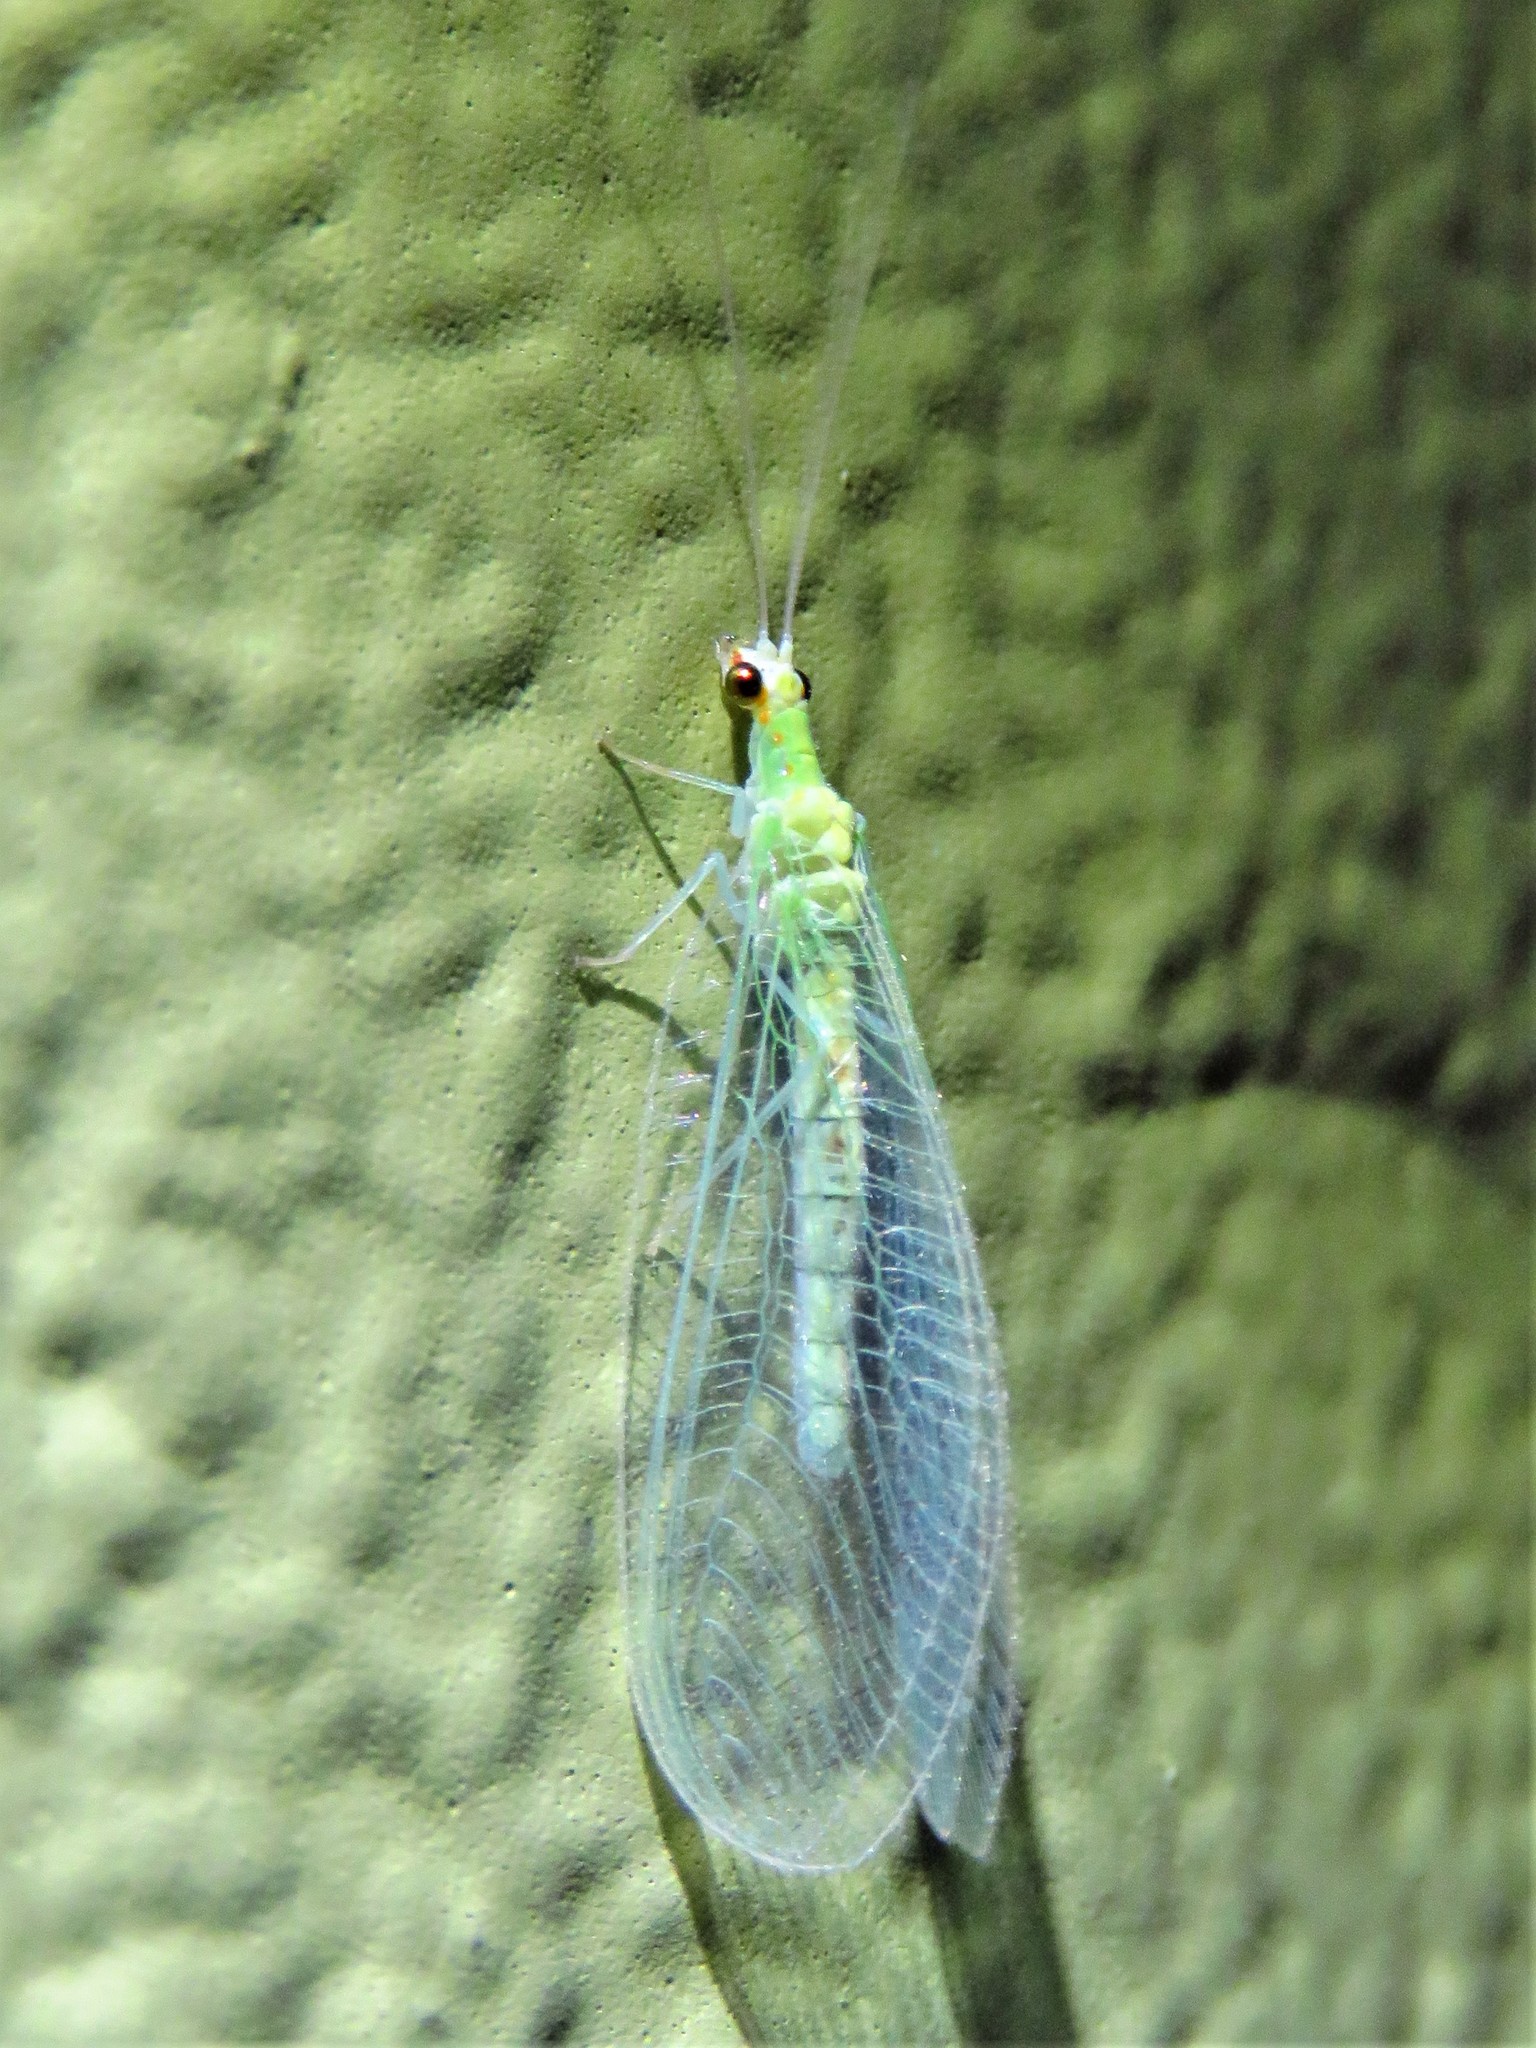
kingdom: Animalia
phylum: Arthropoda
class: Insecta
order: Neuroptera
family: Chrysopidae
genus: Chrysopa
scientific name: Chrysopa quadripunctata
